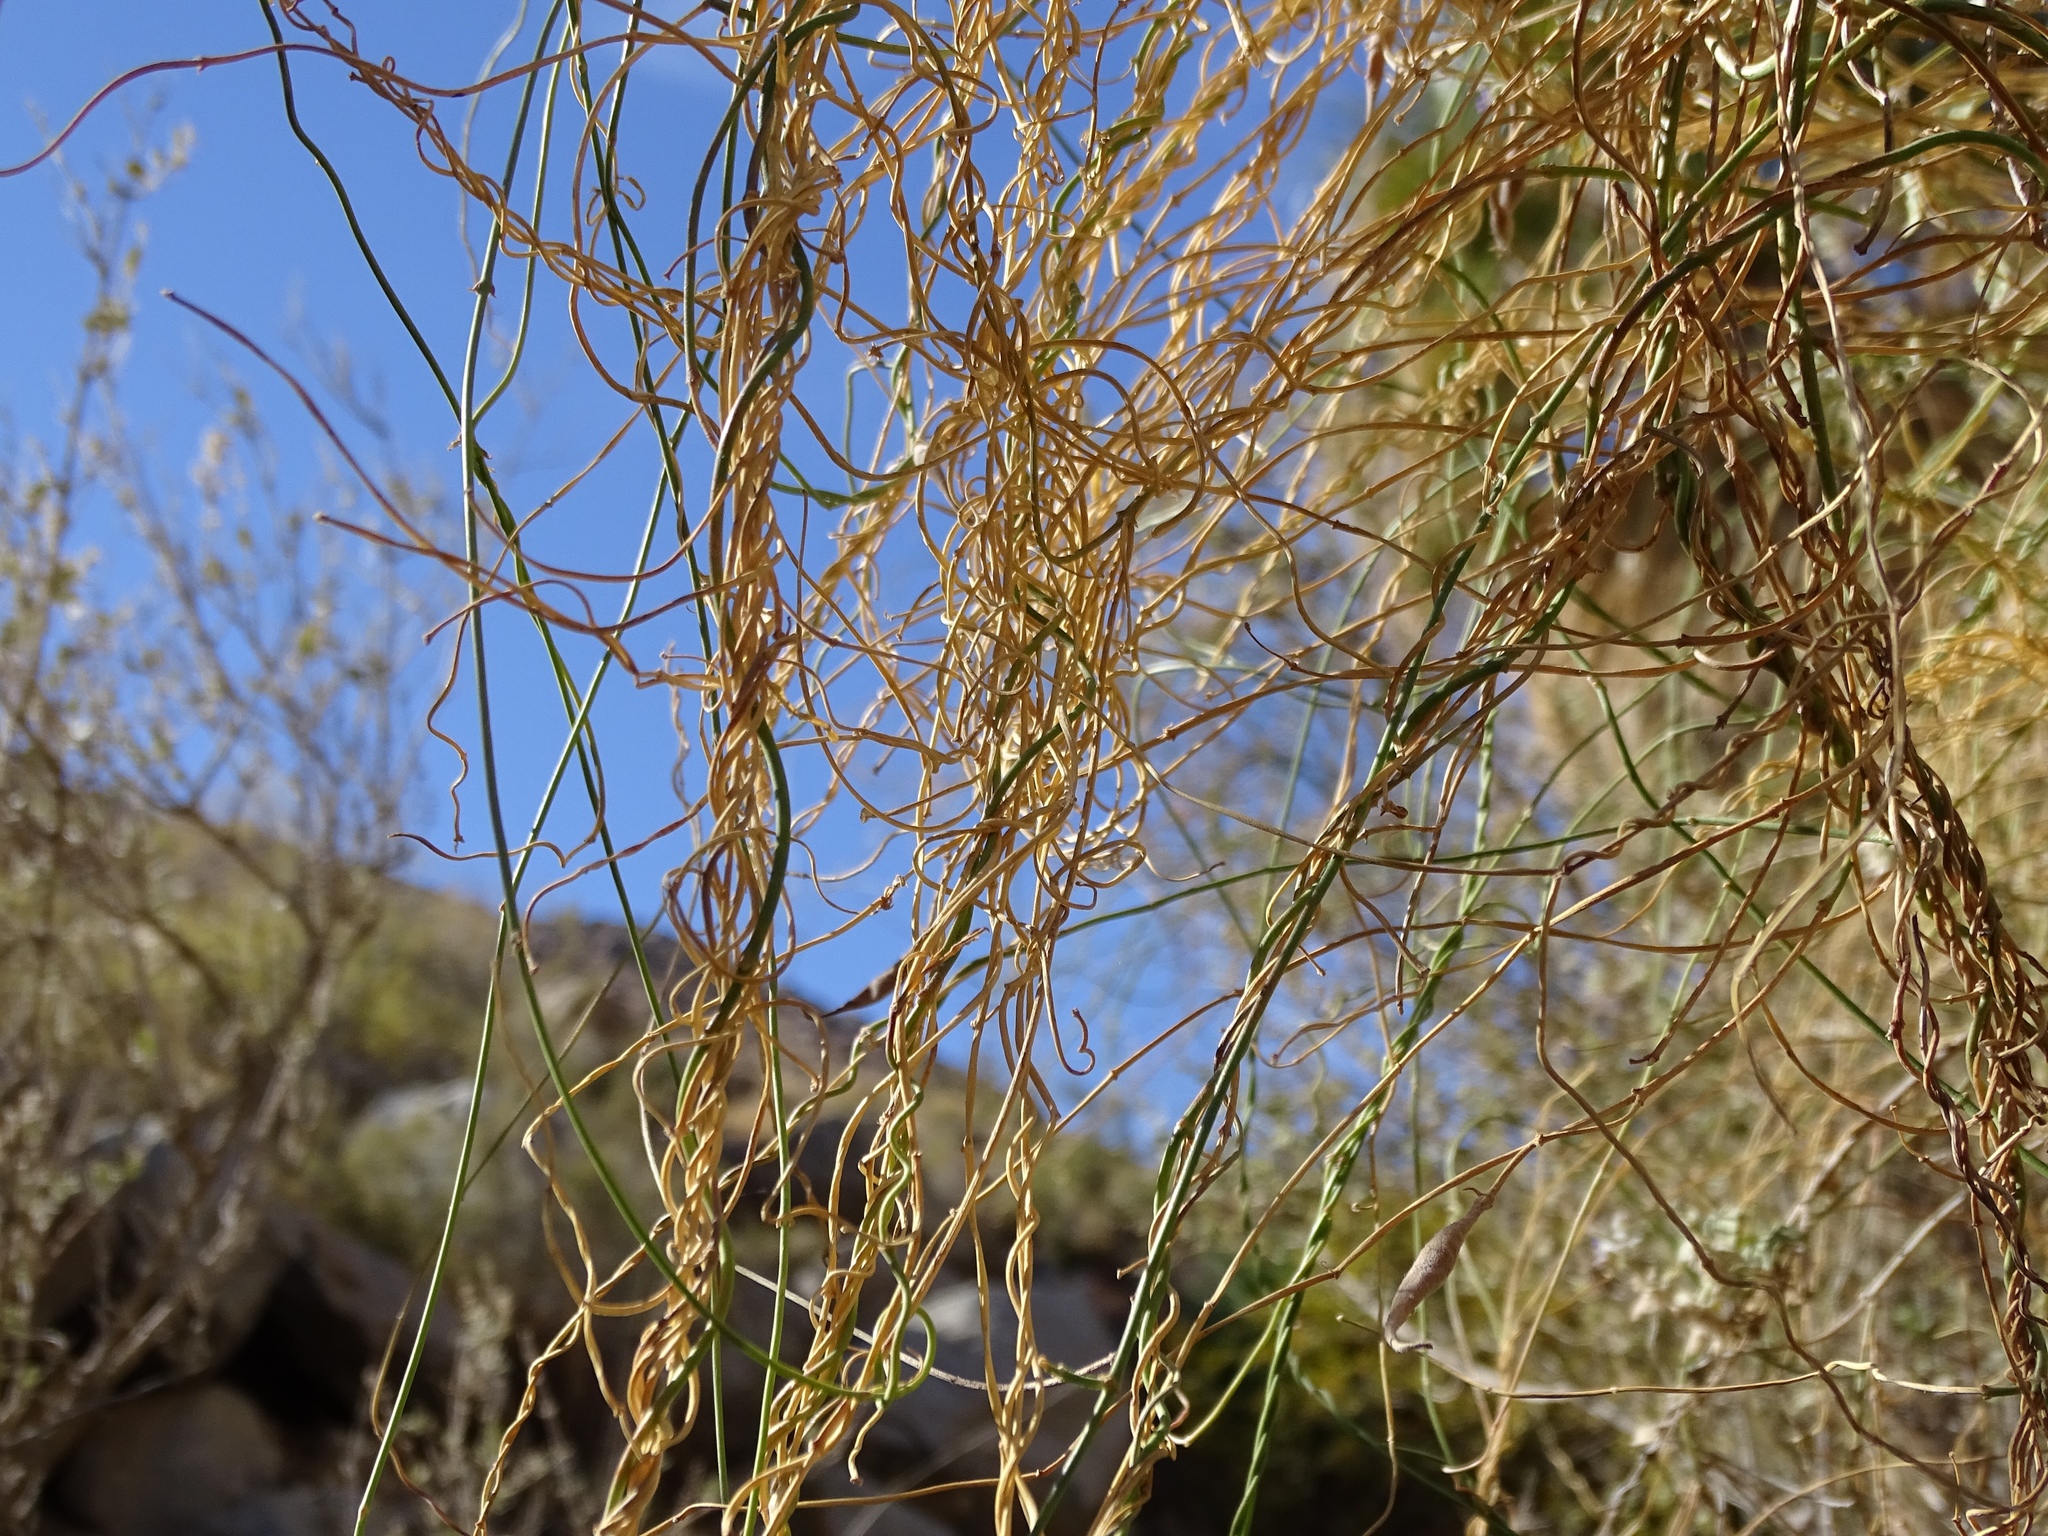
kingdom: Plantae
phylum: Tracheophyta
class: Magnoliopsida
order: Gentianales
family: Apocynaceae
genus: Funastrum
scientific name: Funastrum heterophyllum
